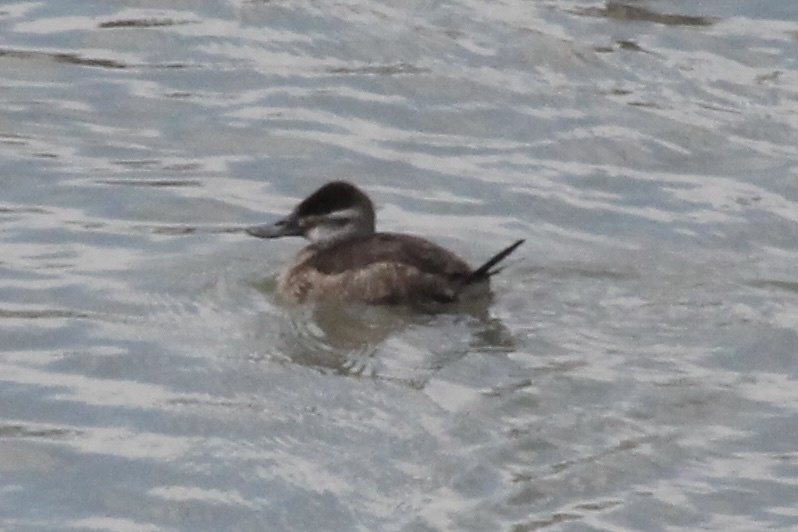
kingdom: Animalia
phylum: Chordata
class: Aves
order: Anseriformes
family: Anatidae
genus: Oxyura
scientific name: Oxyura jamaicensis
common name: Ruddy duck
